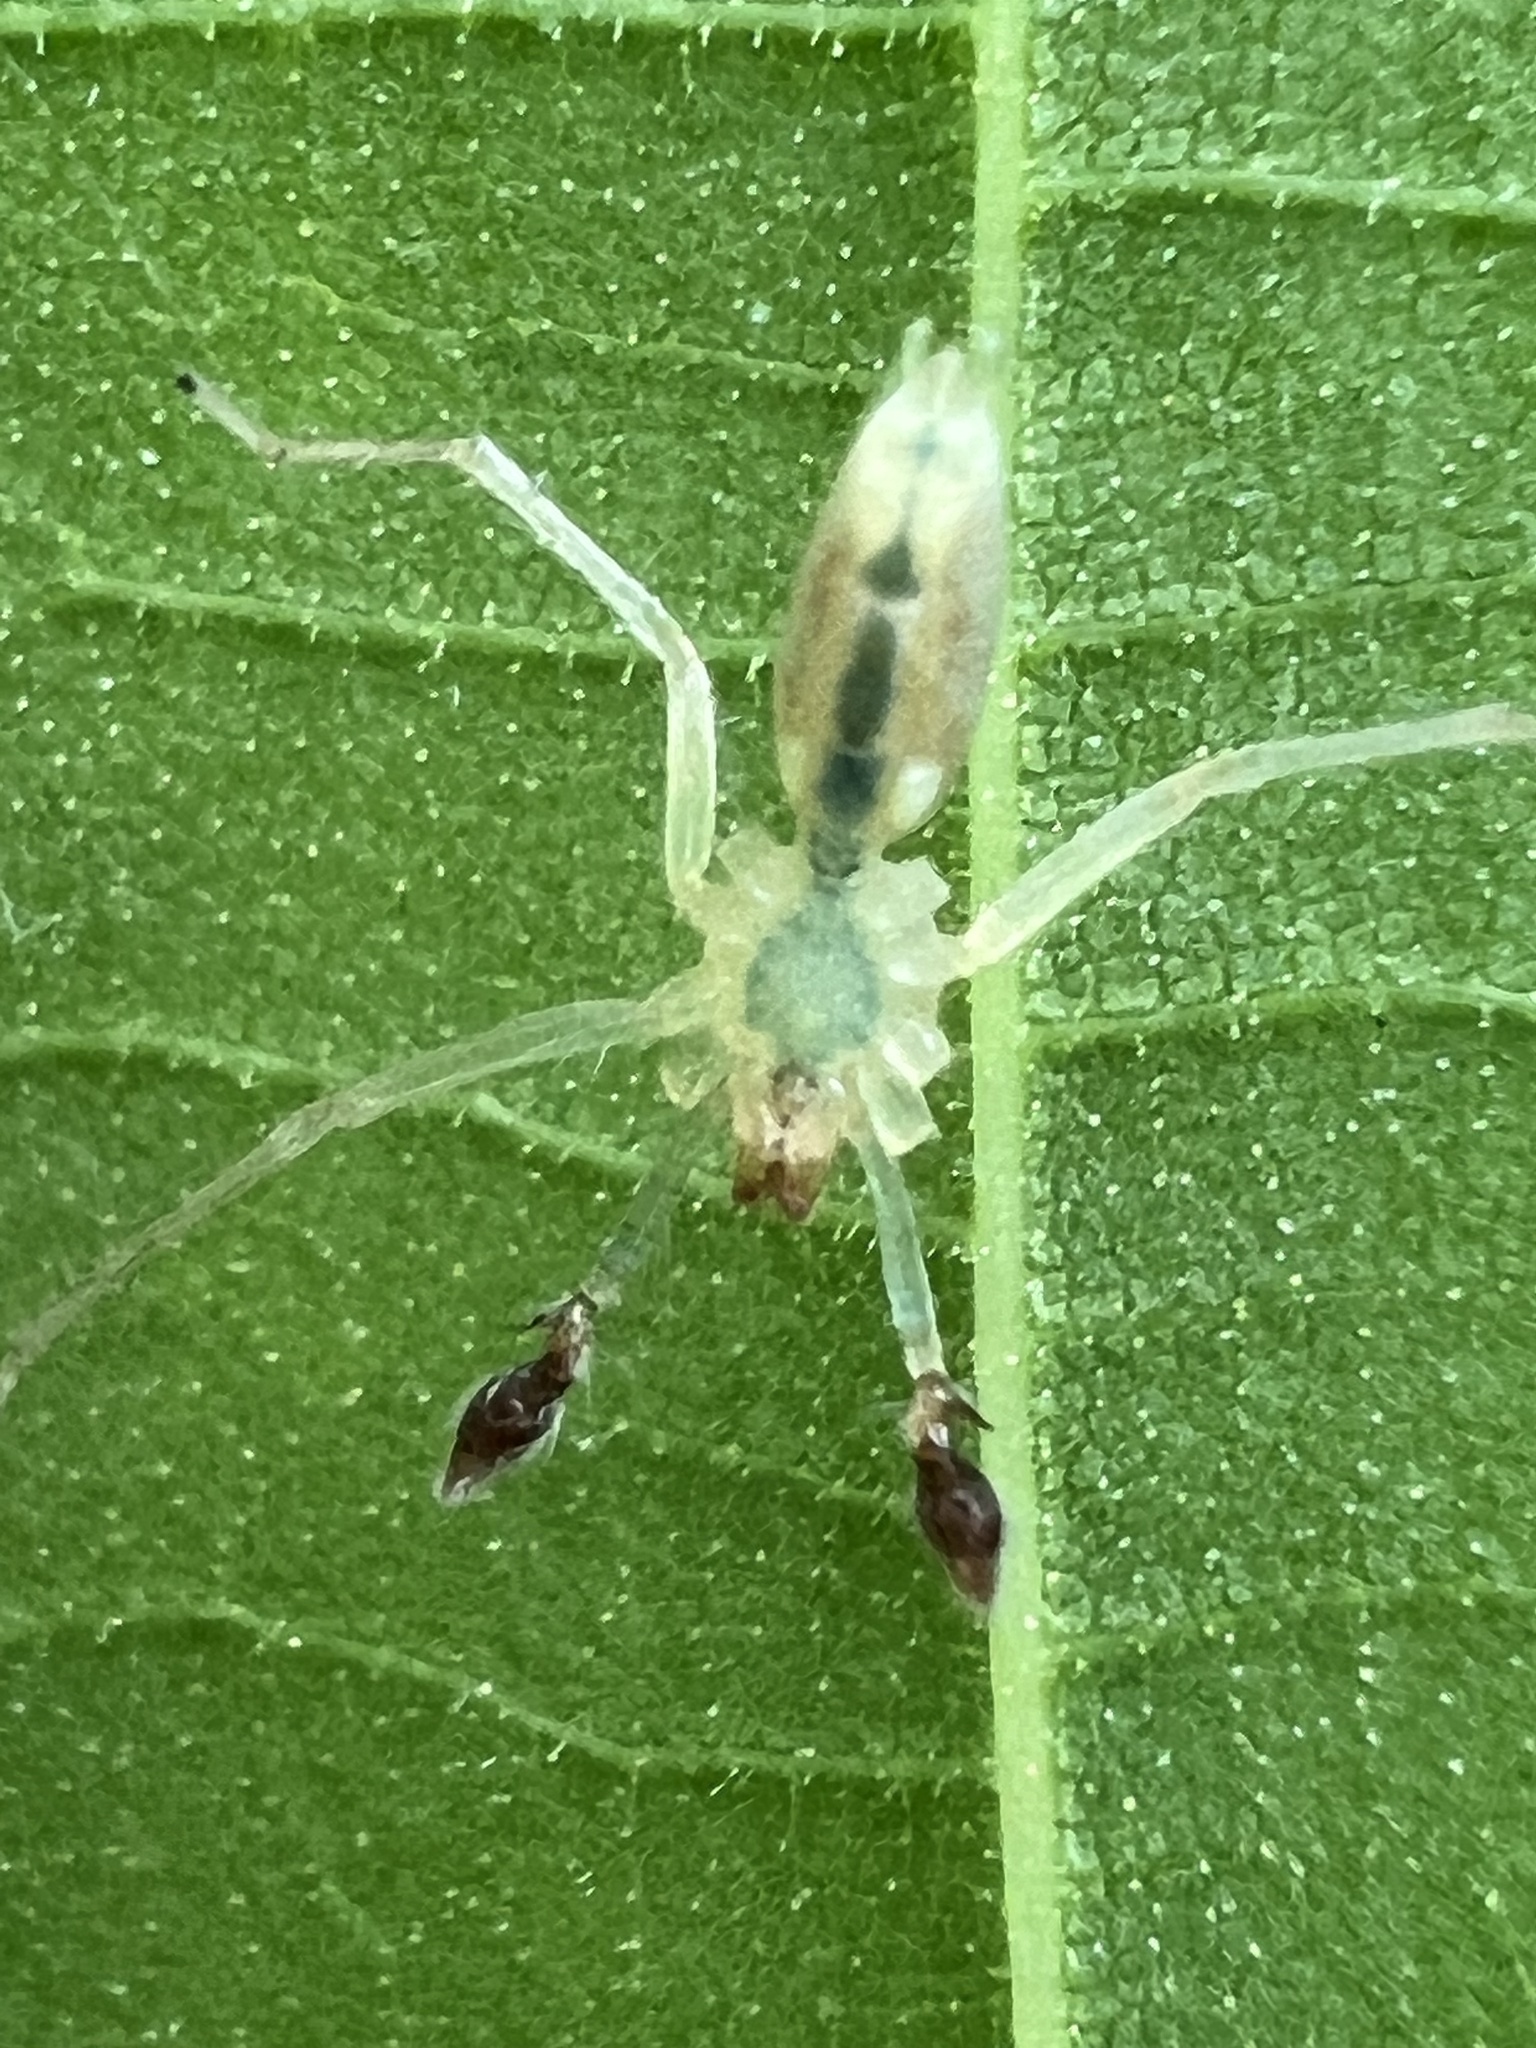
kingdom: Animalia
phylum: Arthropoda
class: Arachnida
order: Araneae
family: Anyphaenidae
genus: Wulfila
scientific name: Wulfila albens
